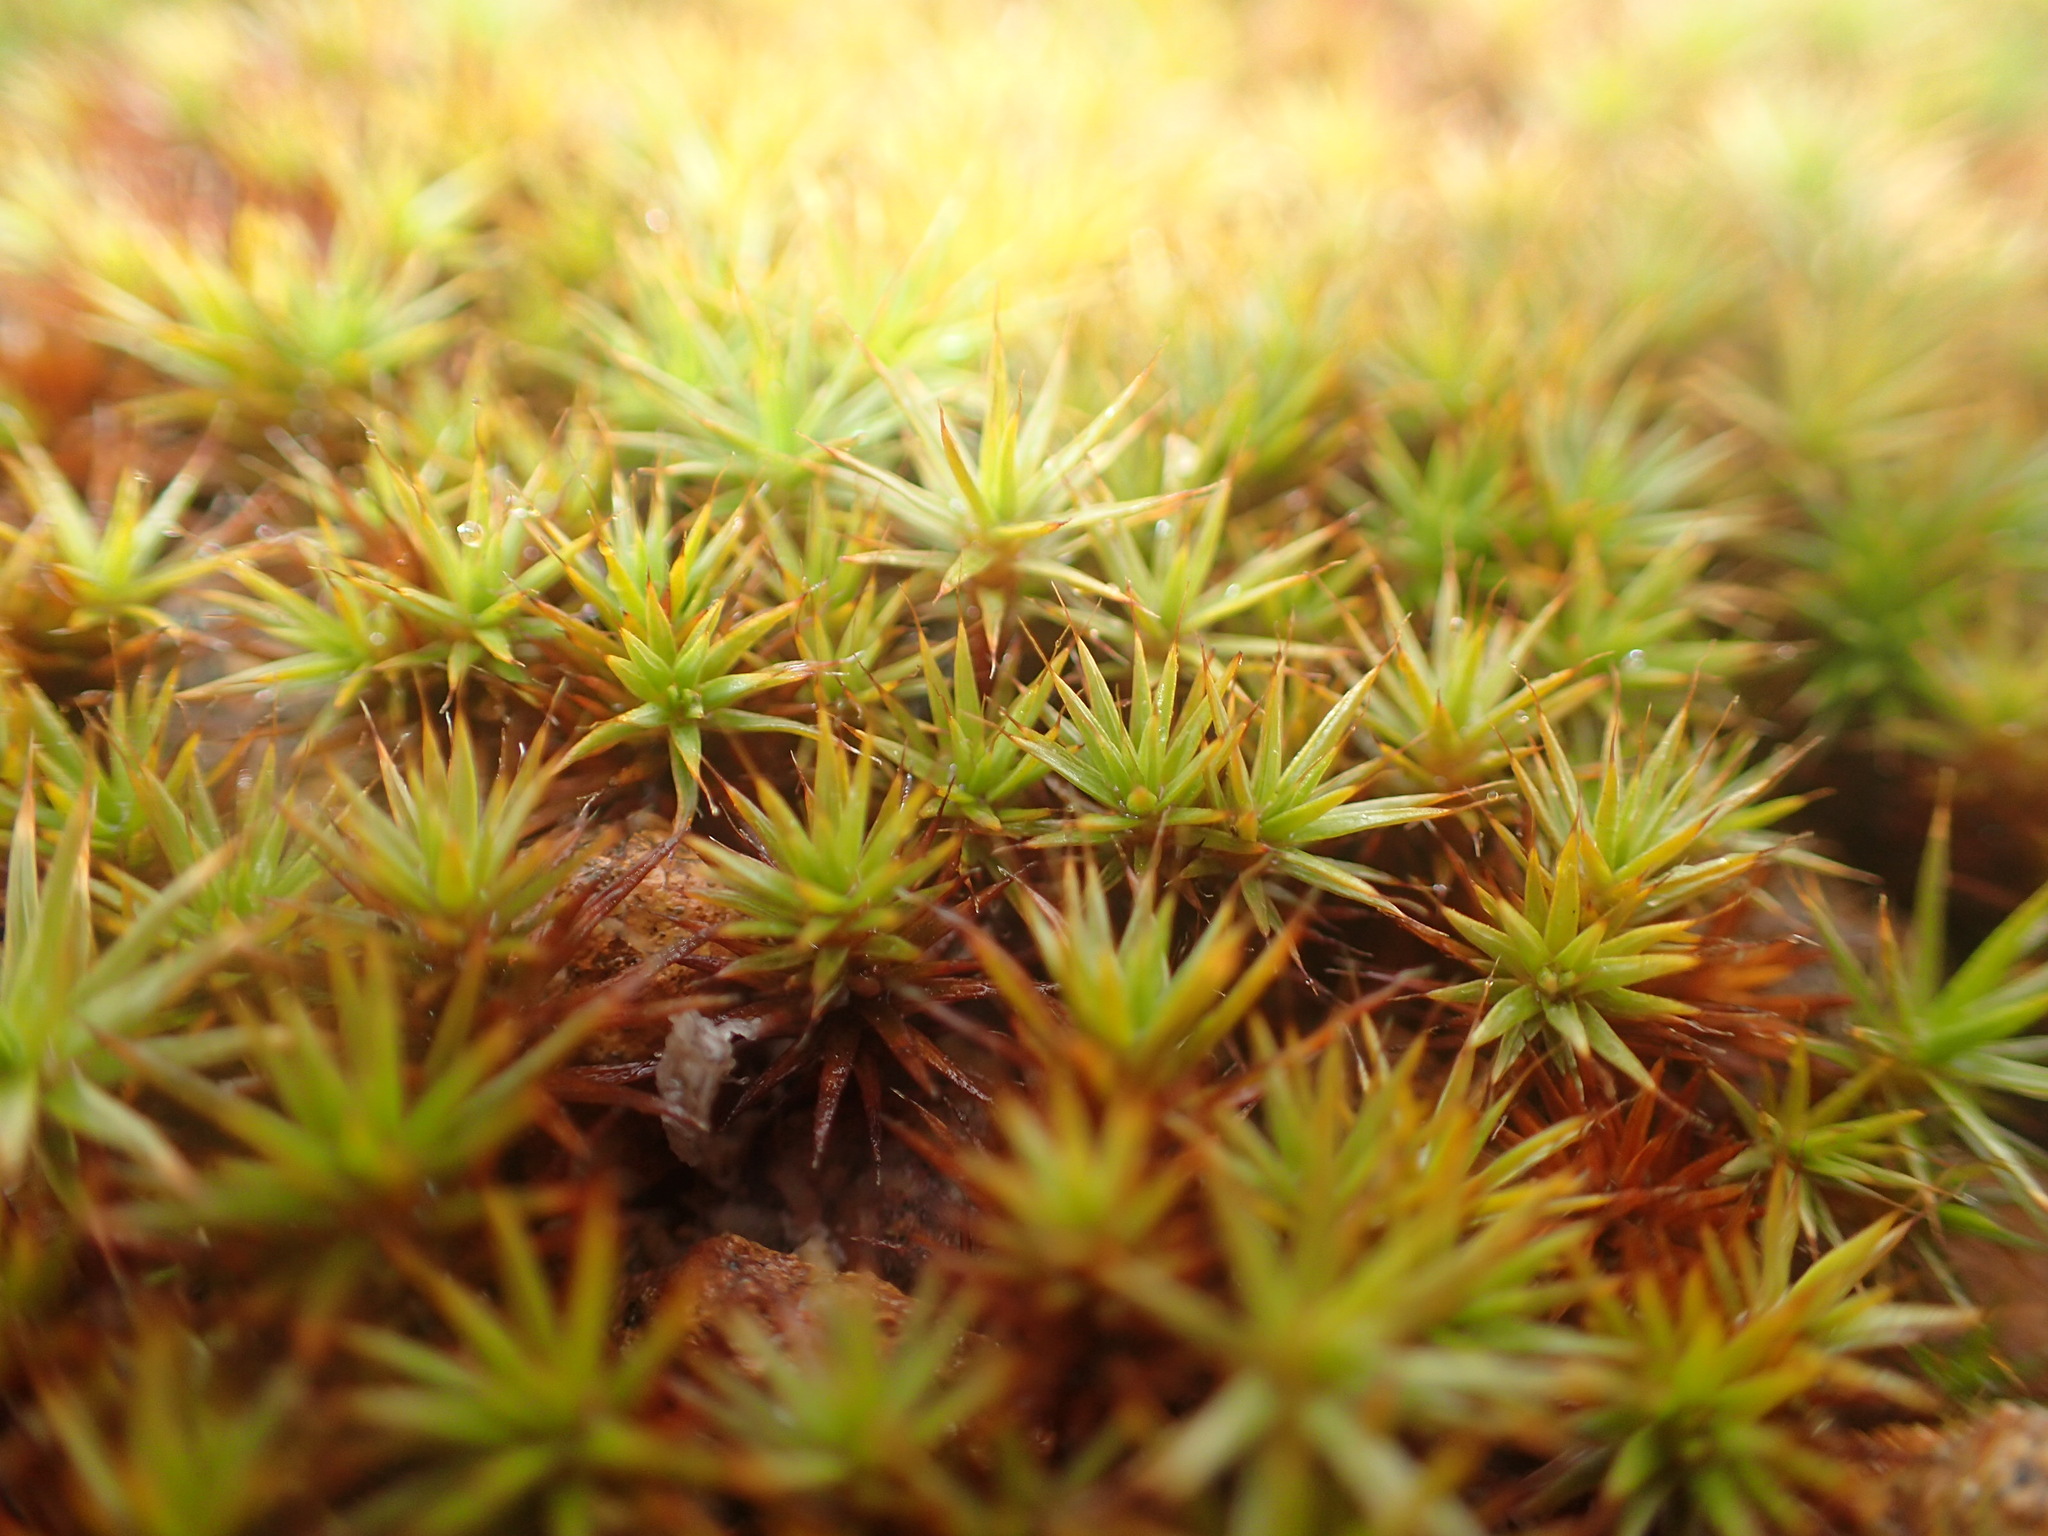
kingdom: Plantae
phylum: Bryophyta
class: Polytrichopsida
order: Polytrichales
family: Polytrichaceae
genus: Polytrichum
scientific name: Polytrichum juniperinum
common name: Juniper haircap moss
